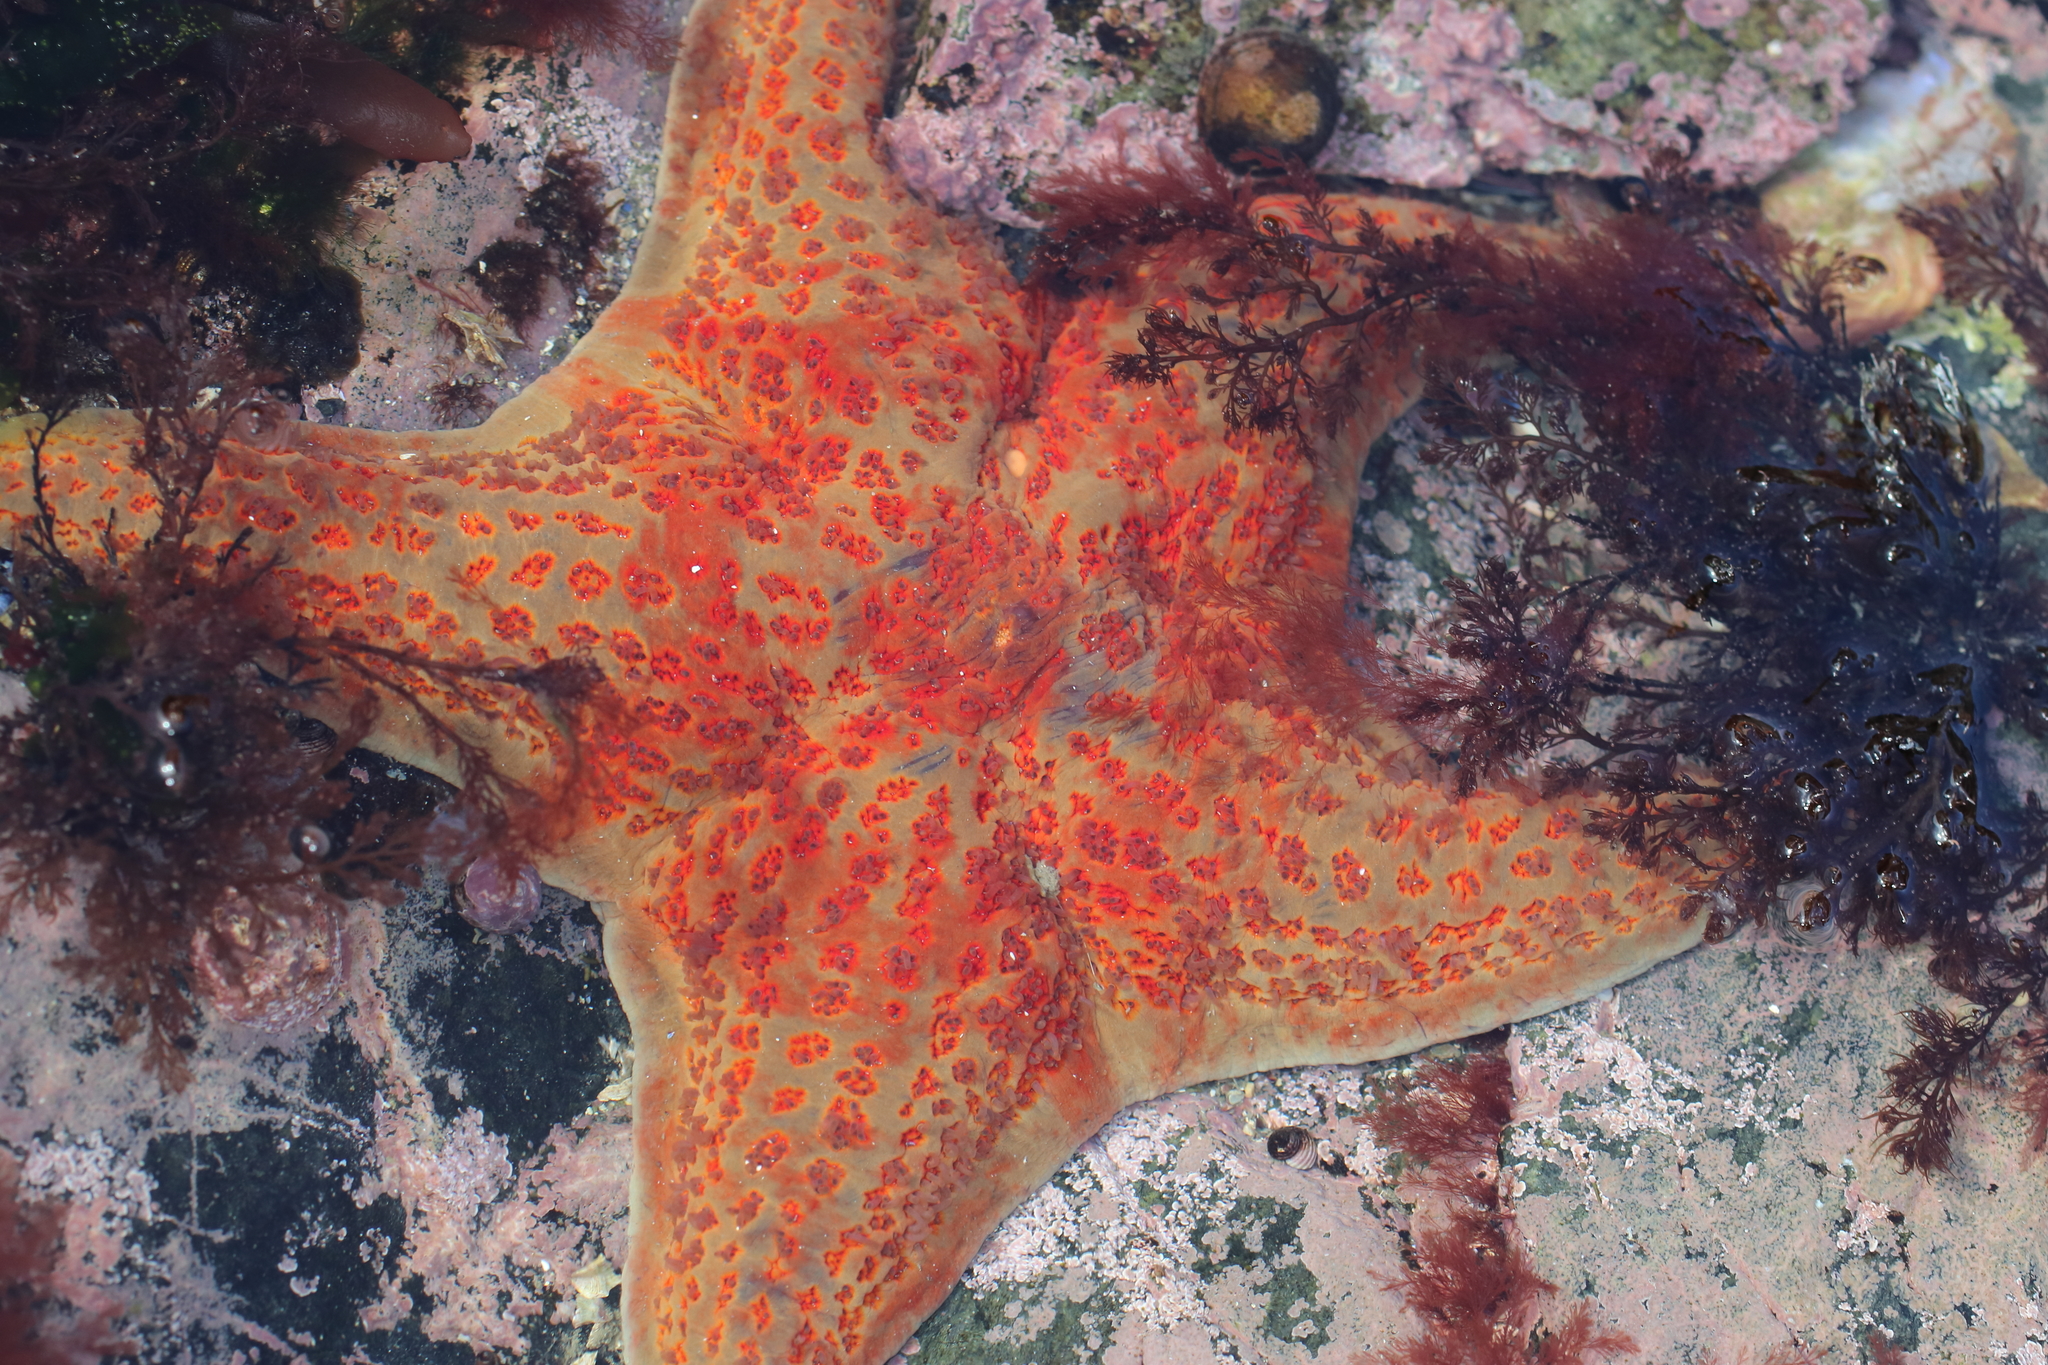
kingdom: Animalia
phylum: Echinodermata
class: Asteroidea
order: Valvatida
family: Asteropseidae
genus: Dermasterias
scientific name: Dermasterias imbricata
